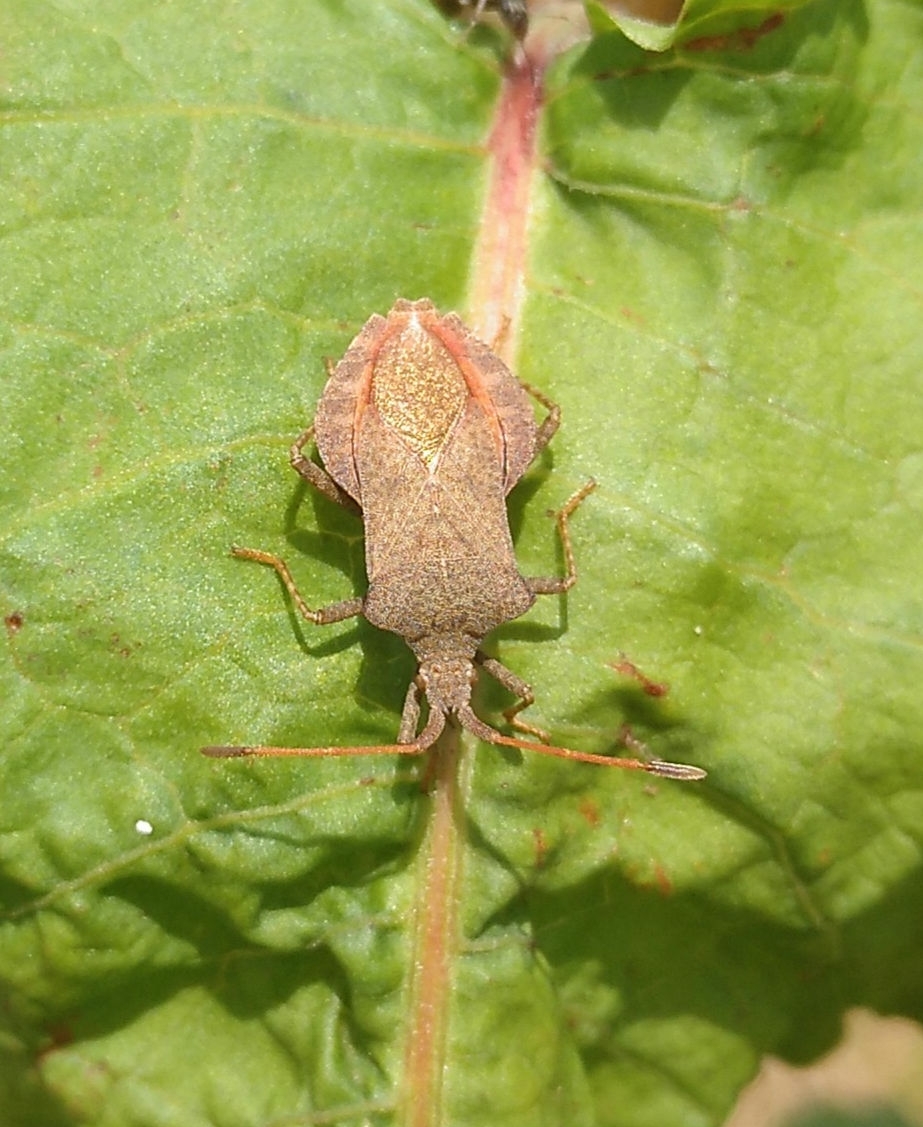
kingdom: Animalia
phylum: Arthropoda
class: Insecta
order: Hemiptera
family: Coreidae
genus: Coreus
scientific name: Coreus marginatus
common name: Dock bug
